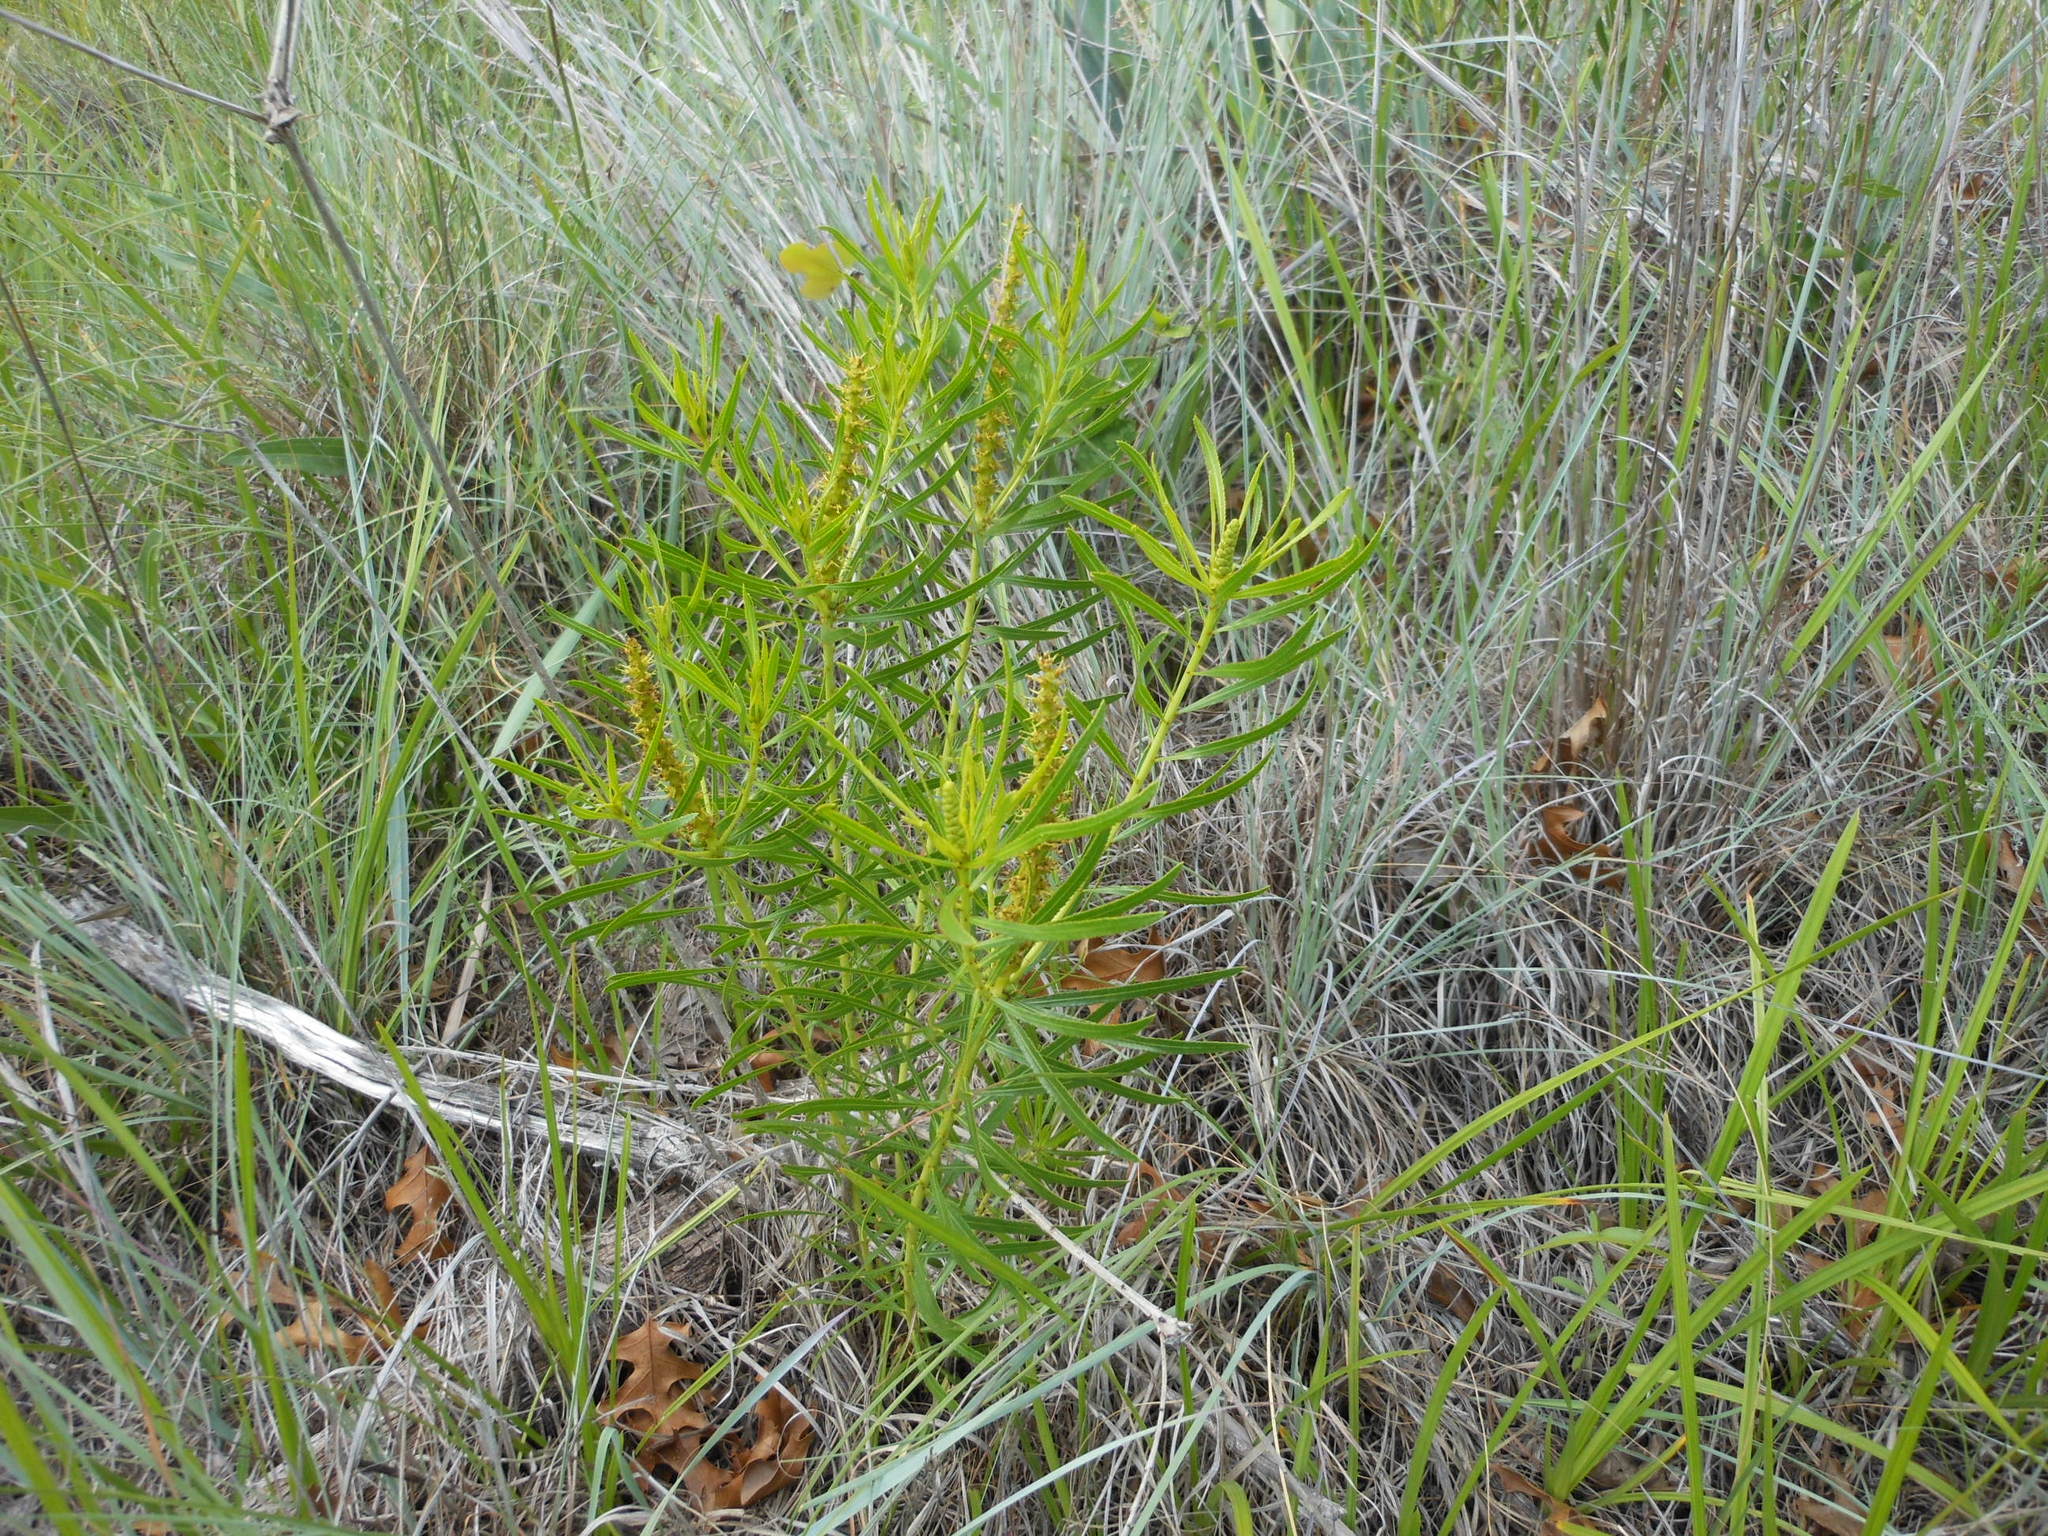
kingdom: Plantae
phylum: Tracheophyta
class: Magnoliopsida
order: Malpighiales
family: Euphorbiaceae
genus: Stillingia
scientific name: Stillingia texana
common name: Texas stillingia
